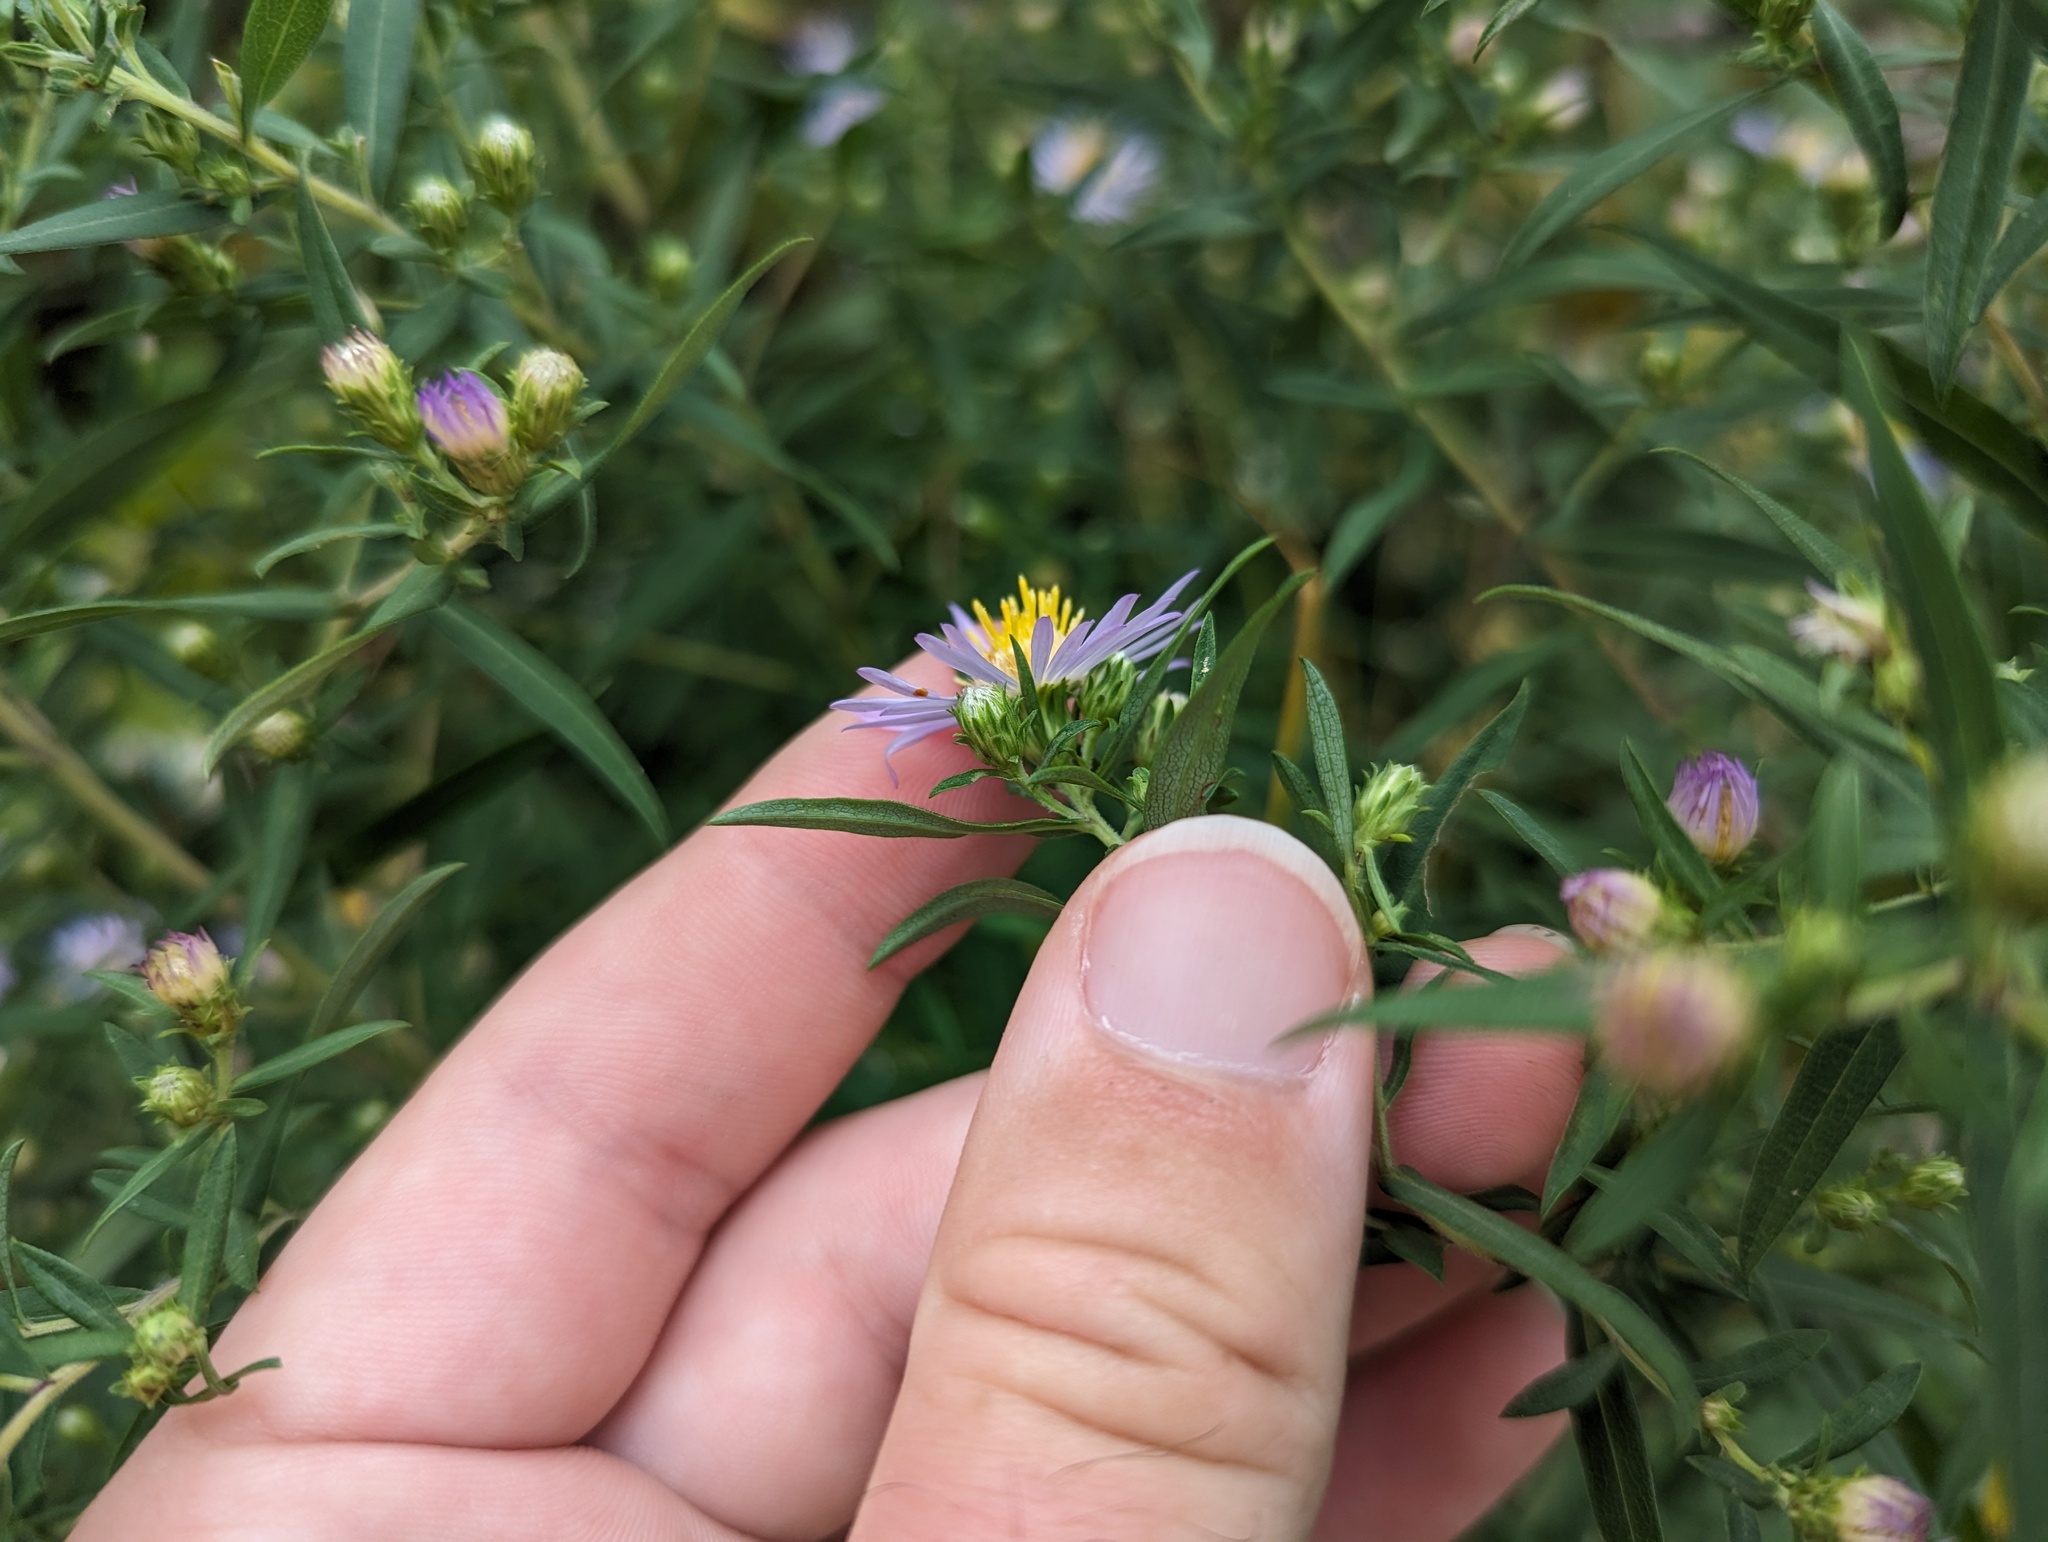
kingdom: Plantae
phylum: Tracheophyta
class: Magnoliopsida
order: Asterales
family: Asteraceae
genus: Symphyotrichum
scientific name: Symphyotrichum praealtum
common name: Willow aster
